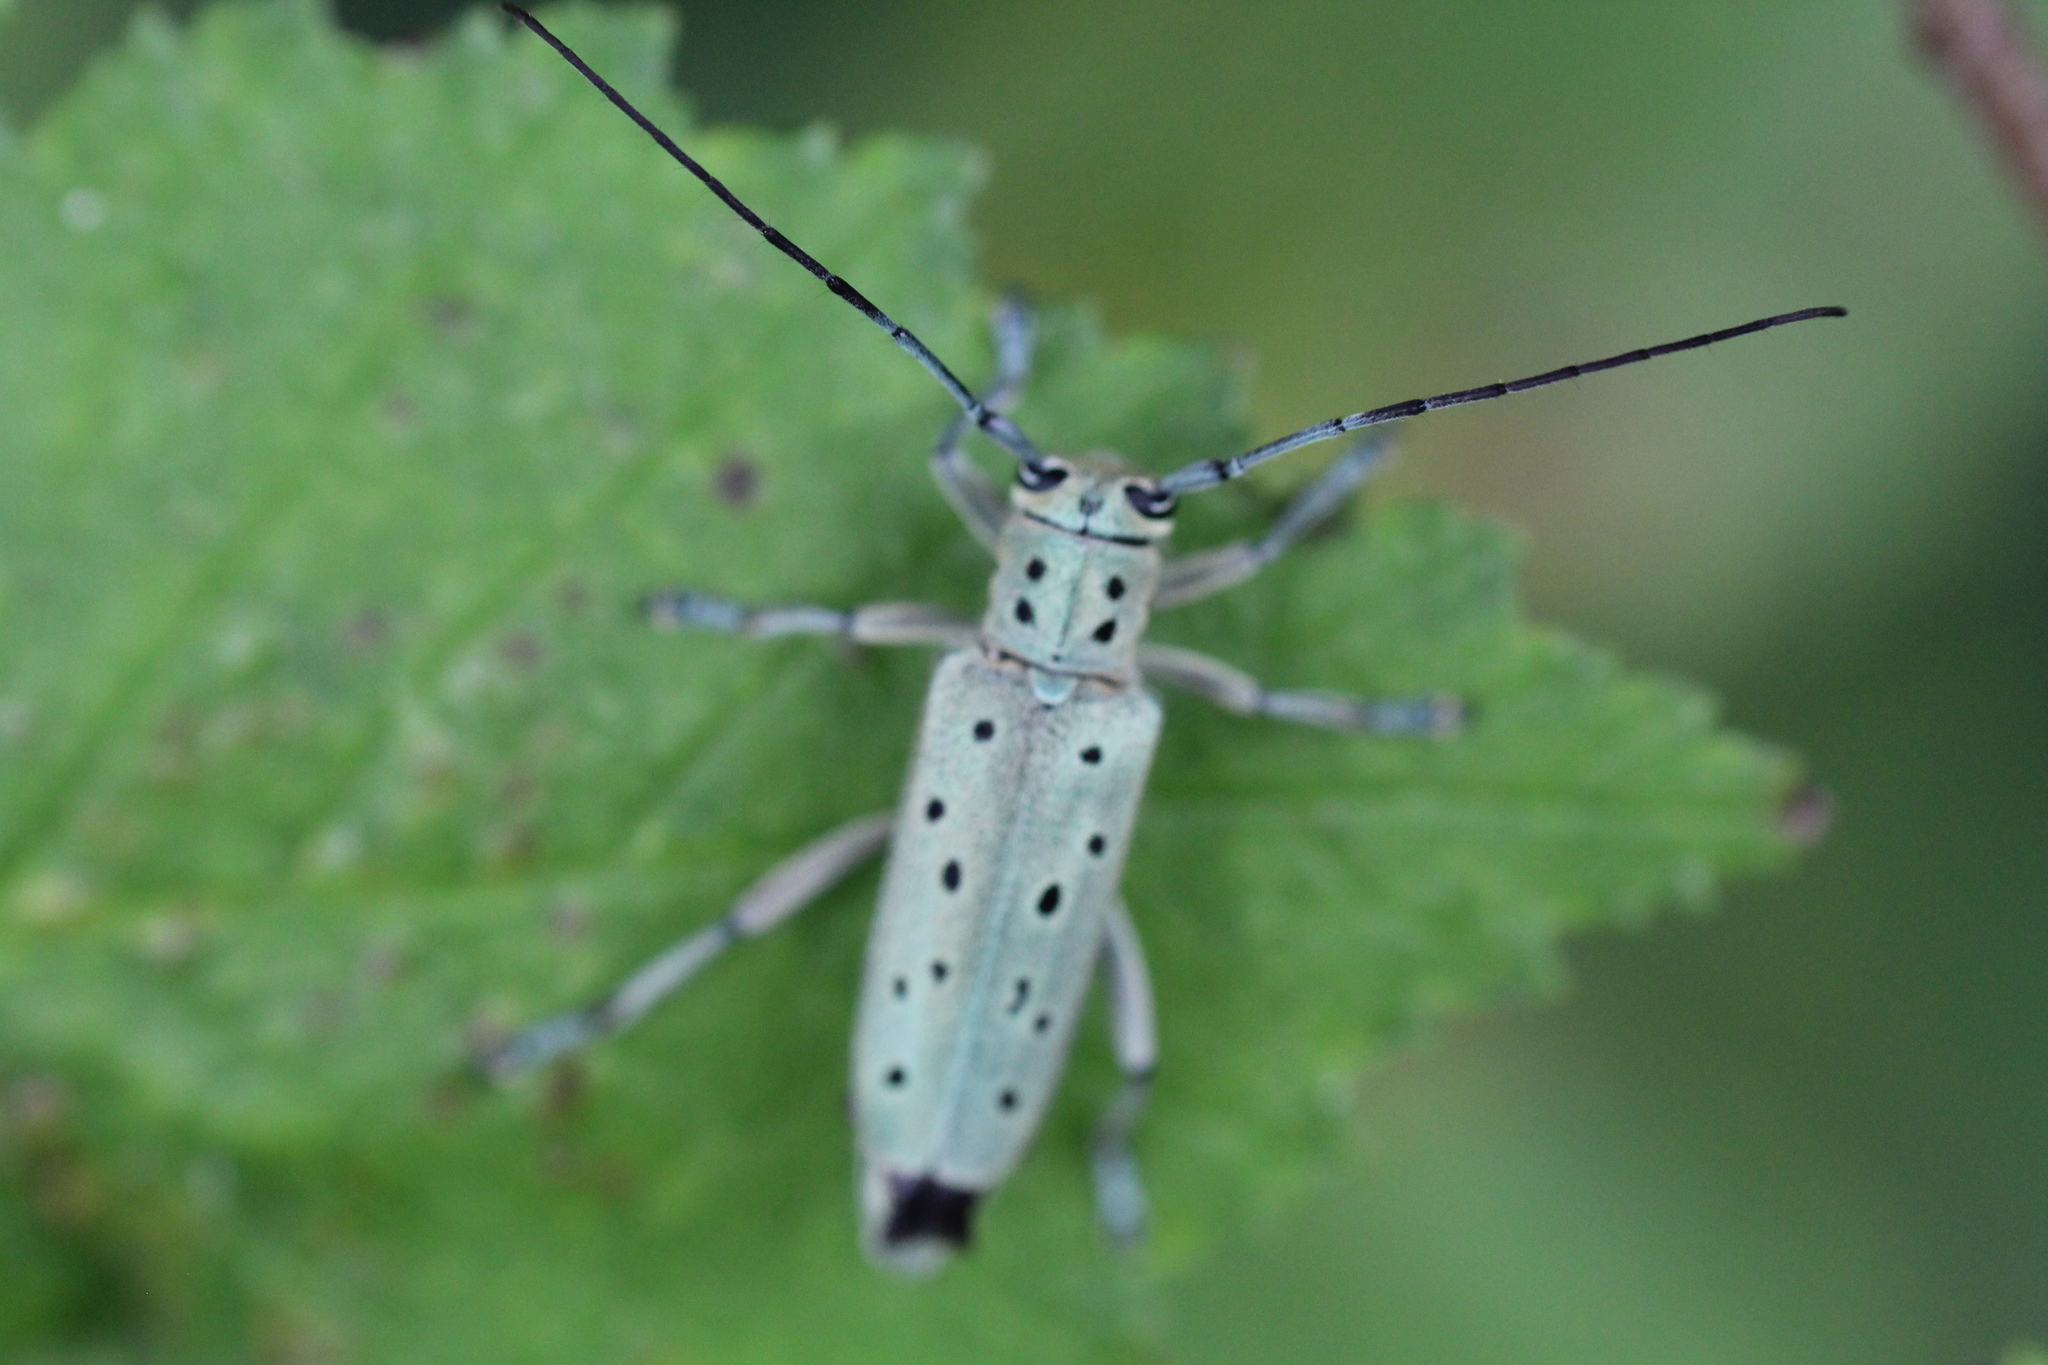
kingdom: Animalia
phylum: Arthropoda
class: Insecta
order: Coleoptera
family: Cerambycidae
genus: Saperda
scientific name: Saperda punctata
